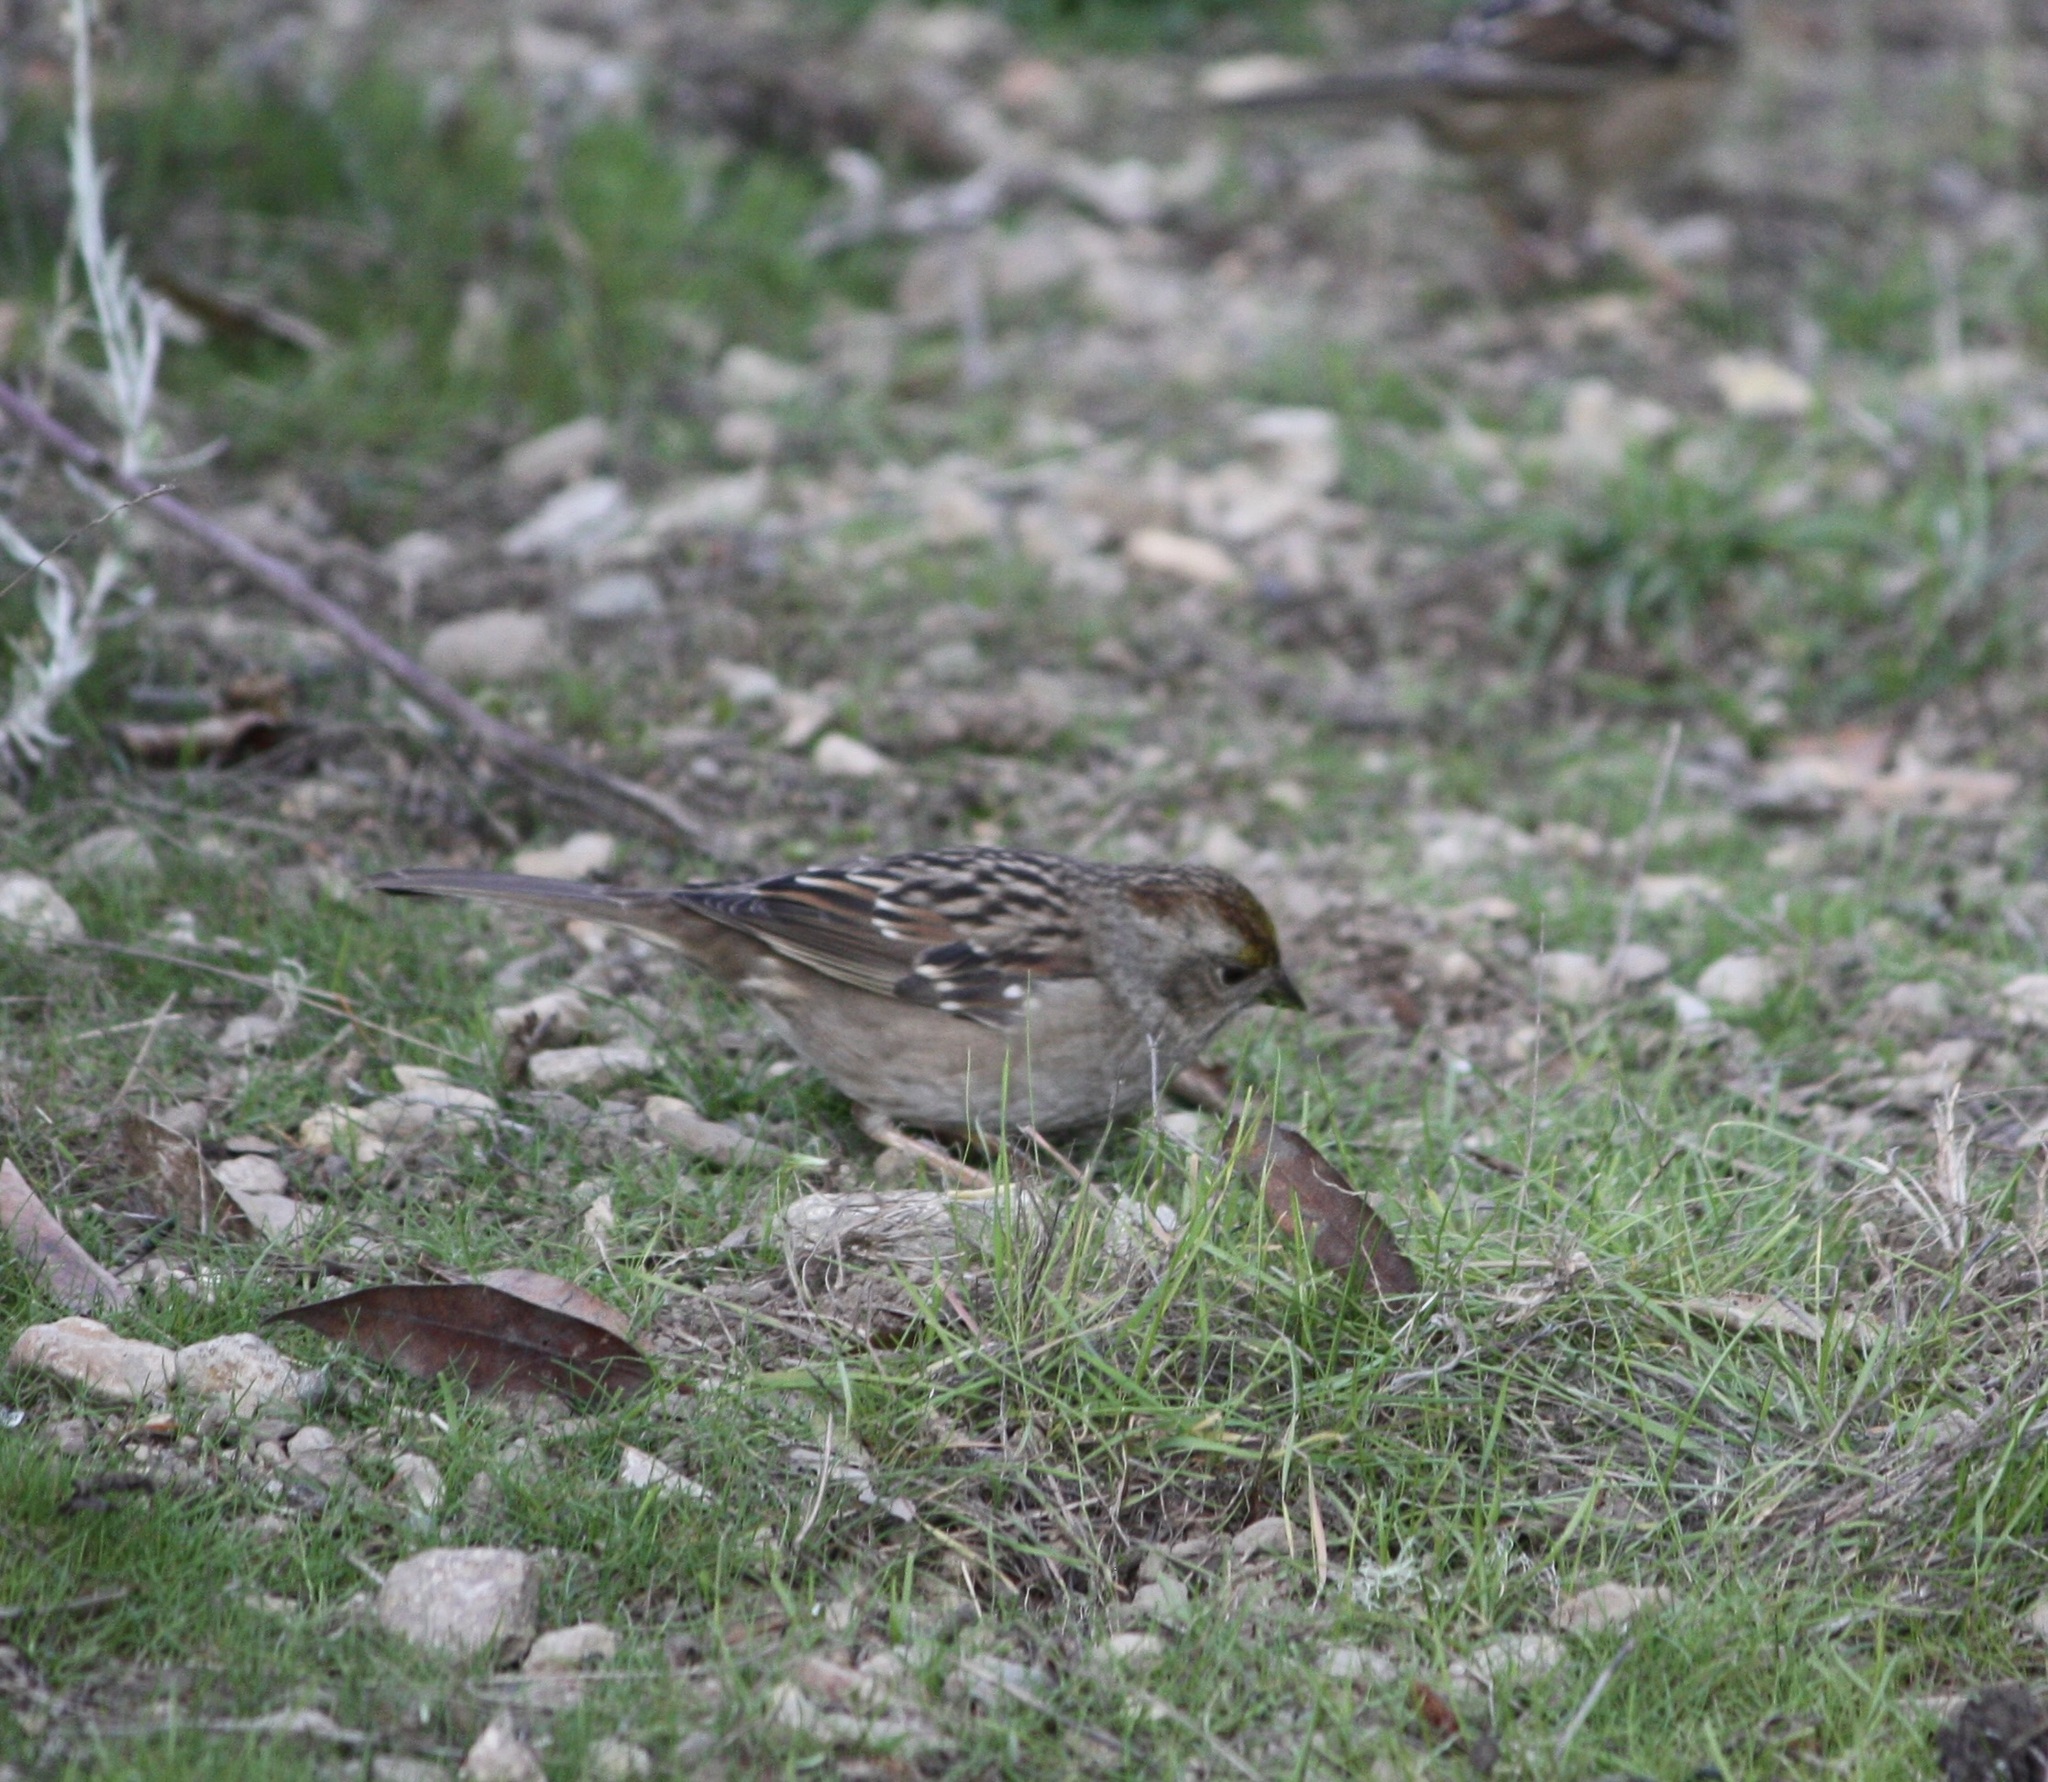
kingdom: Animalia
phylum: Chordata
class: Aves
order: Passeriformes
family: Passerellidae
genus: Zonotrichia
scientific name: Zonotrichia atricapilla
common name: Golden-crowned sparrow
